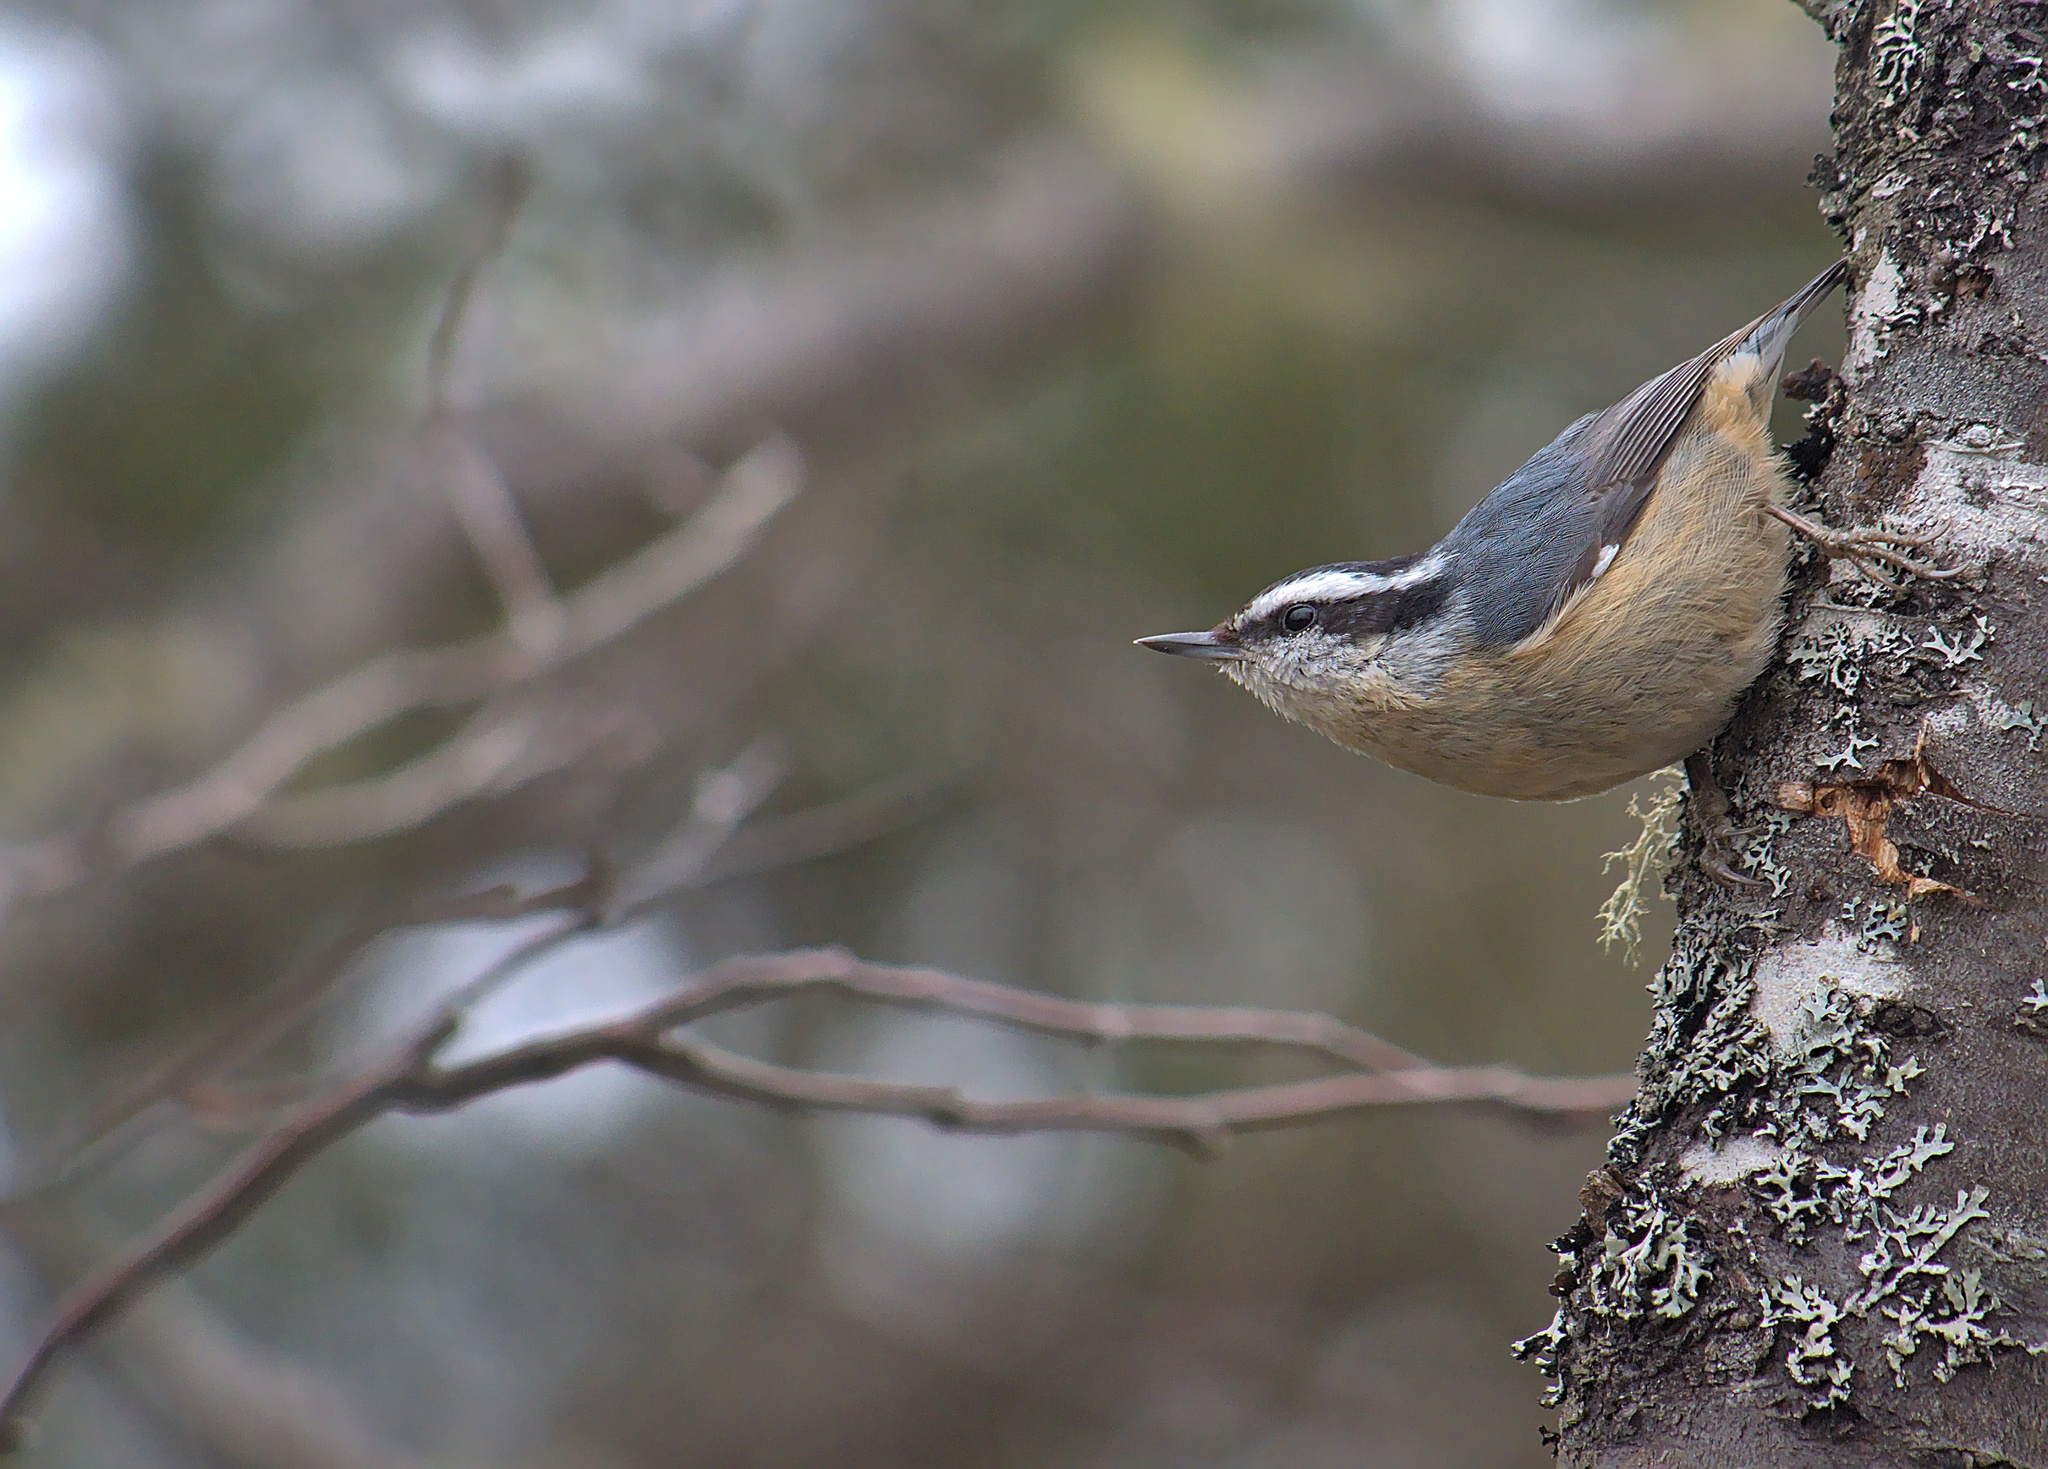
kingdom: Animalia
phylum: Chordata
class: Aves
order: Passeriformes
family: Sittidae
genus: Sitta
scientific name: Sitta canadensis
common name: Red-breasted nuthatch
